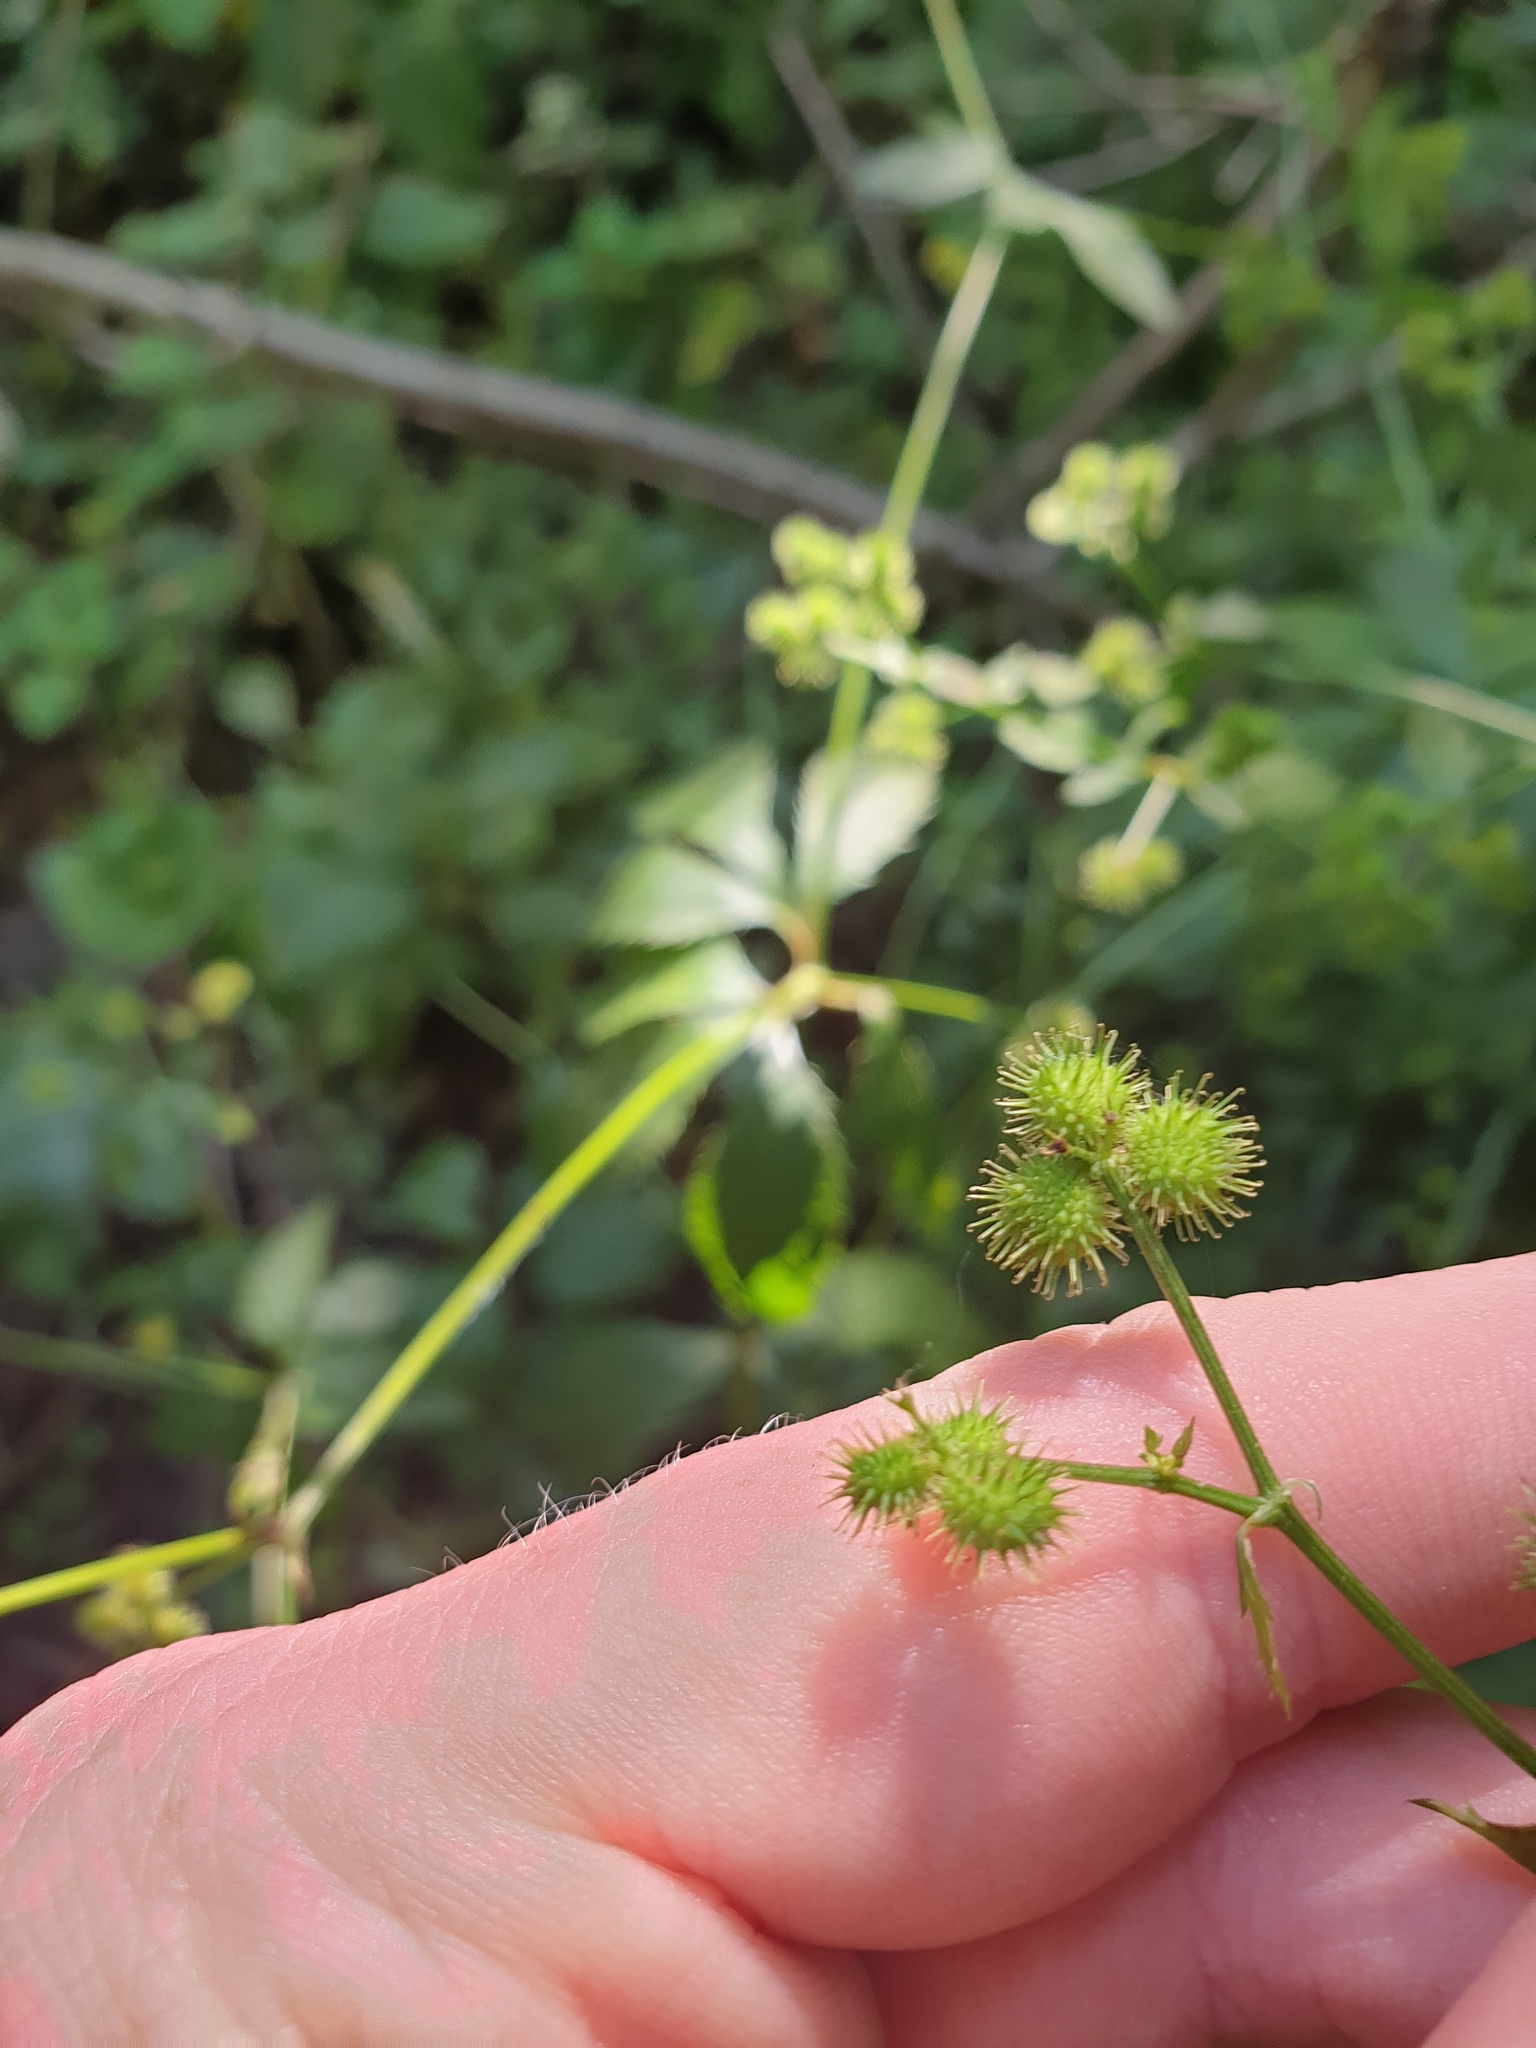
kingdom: Plantae
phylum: Tracheophyta
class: Magnoliopsida
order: Apiales
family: Apiaceae
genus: Sanicula
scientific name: Sanicula canadensis
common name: Canada sanicle
